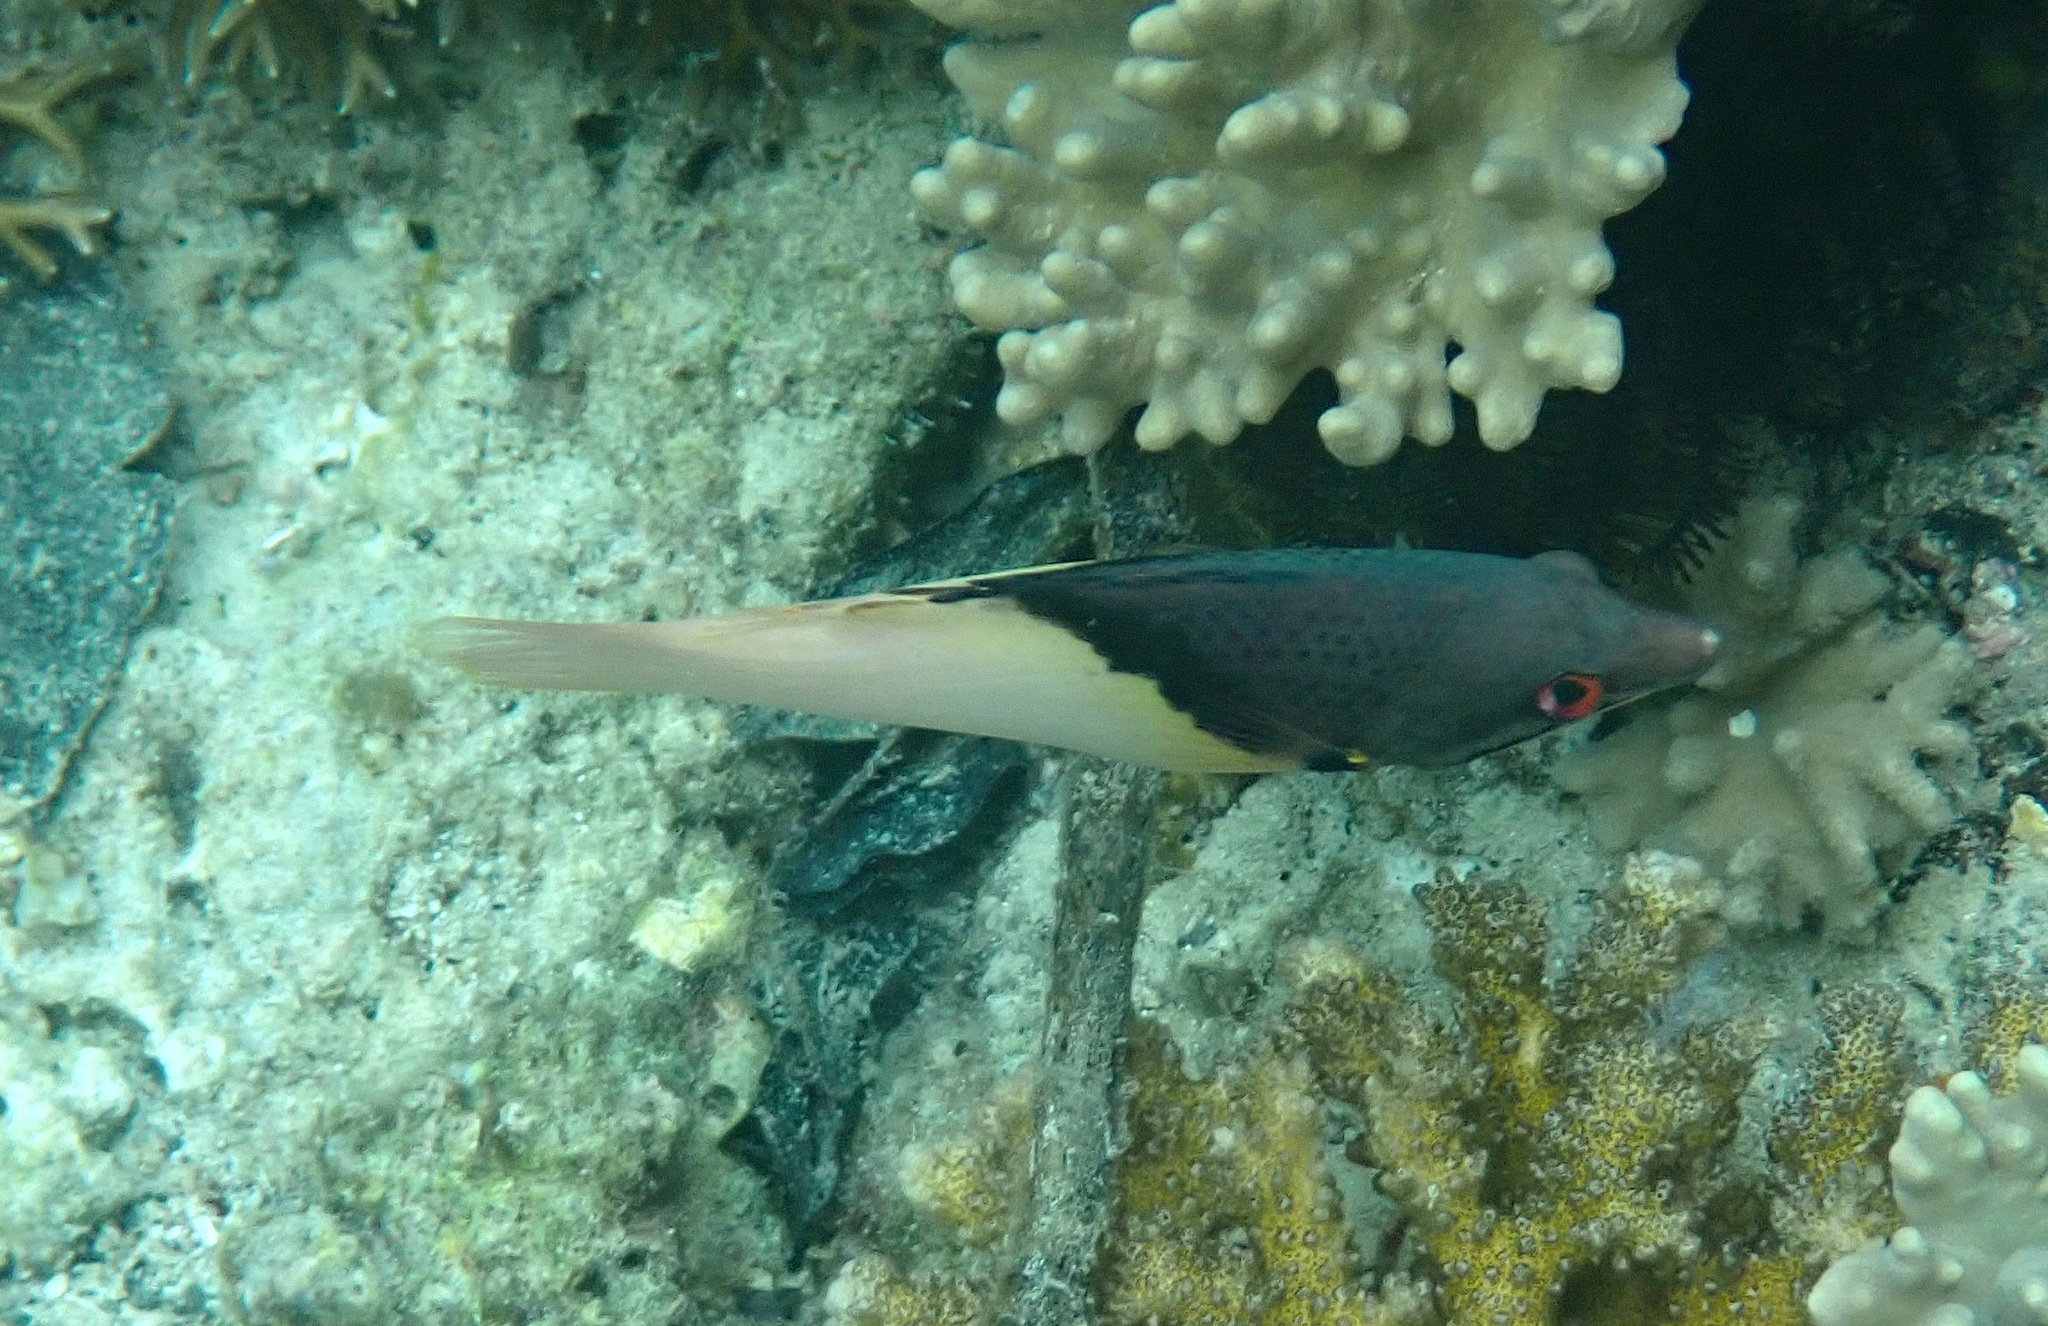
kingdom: Animalia
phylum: Chordata
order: Perciformes
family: Labridae
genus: Bodianus
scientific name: Bodianus mesothorax
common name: Coral hogfish
